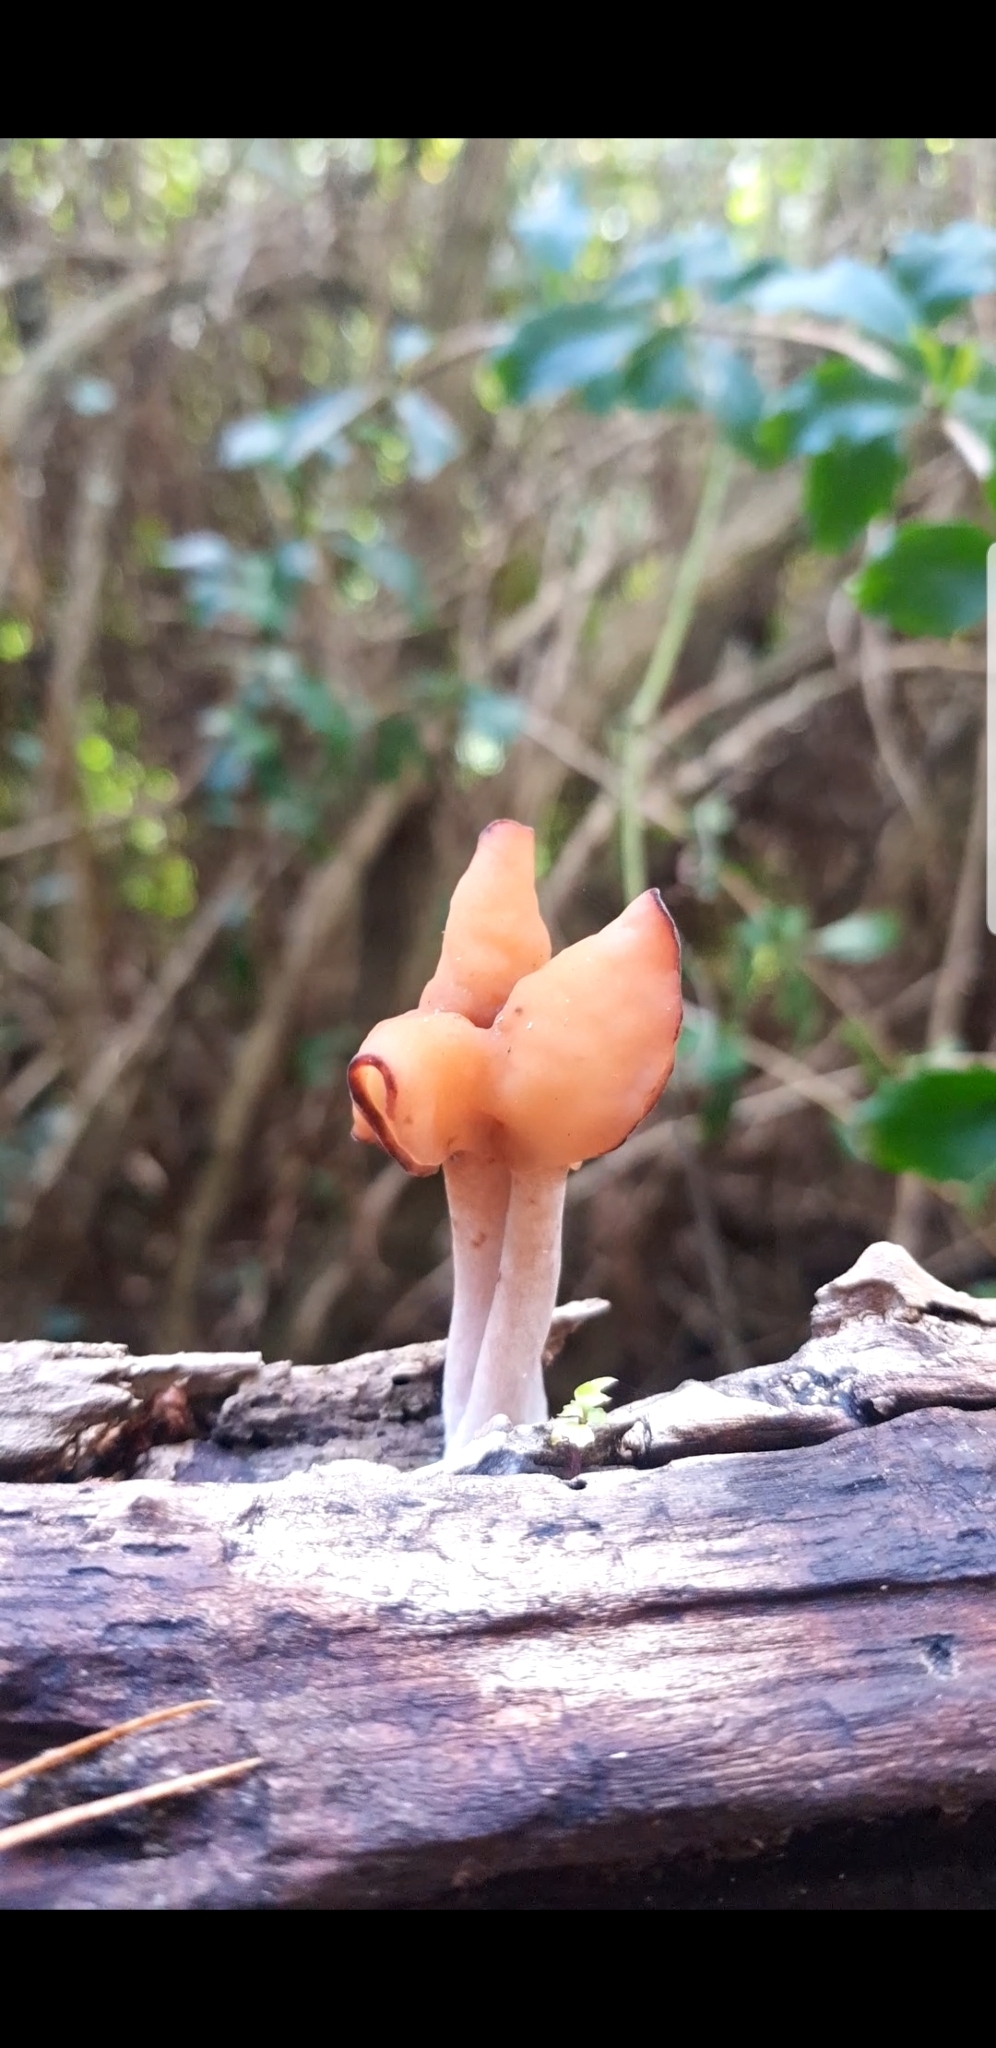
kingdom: Fungi
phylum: Ascomycota
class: Pezizomycetes
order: Pezizales
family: Discinaceae
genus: Gyromitra
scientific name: Gyromitra infula
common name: Pouched false morel
